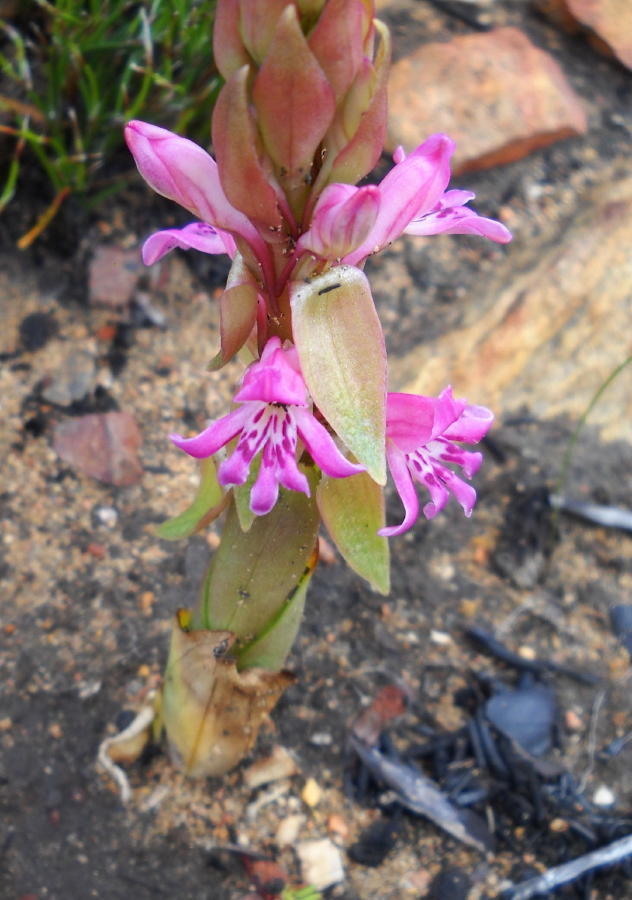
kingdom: Plantae
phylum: Tracheophyta
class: Liliopsida
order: Asparagales
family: Orchidaceae
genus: Satyrium
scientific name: Satyrium erectum
